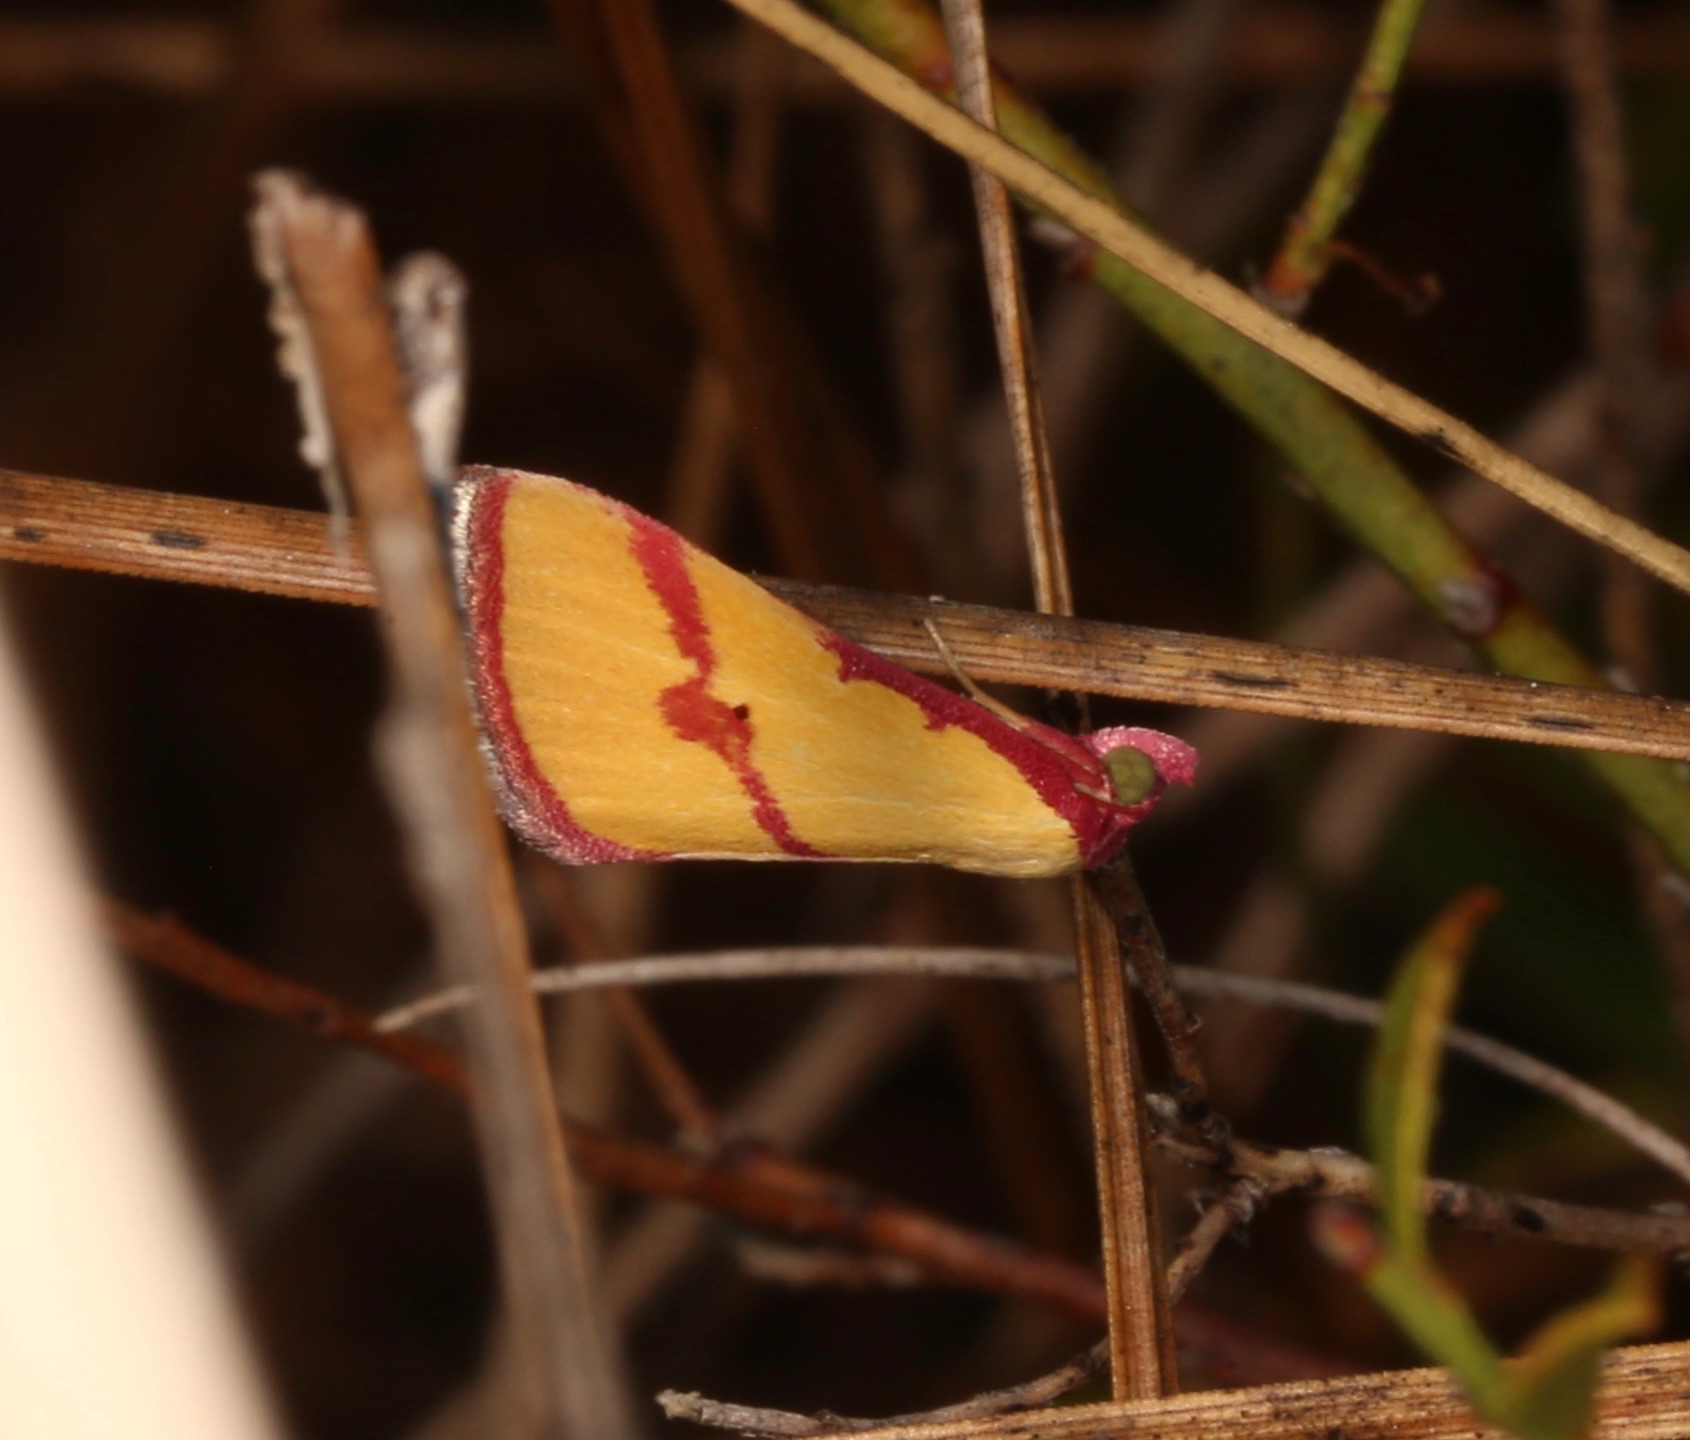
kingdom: Animalia
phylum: Arthropoda
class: Insecta
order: Lepidoptera
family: Erebidae
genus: Phytometra
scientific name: Phytometra ernestinana
